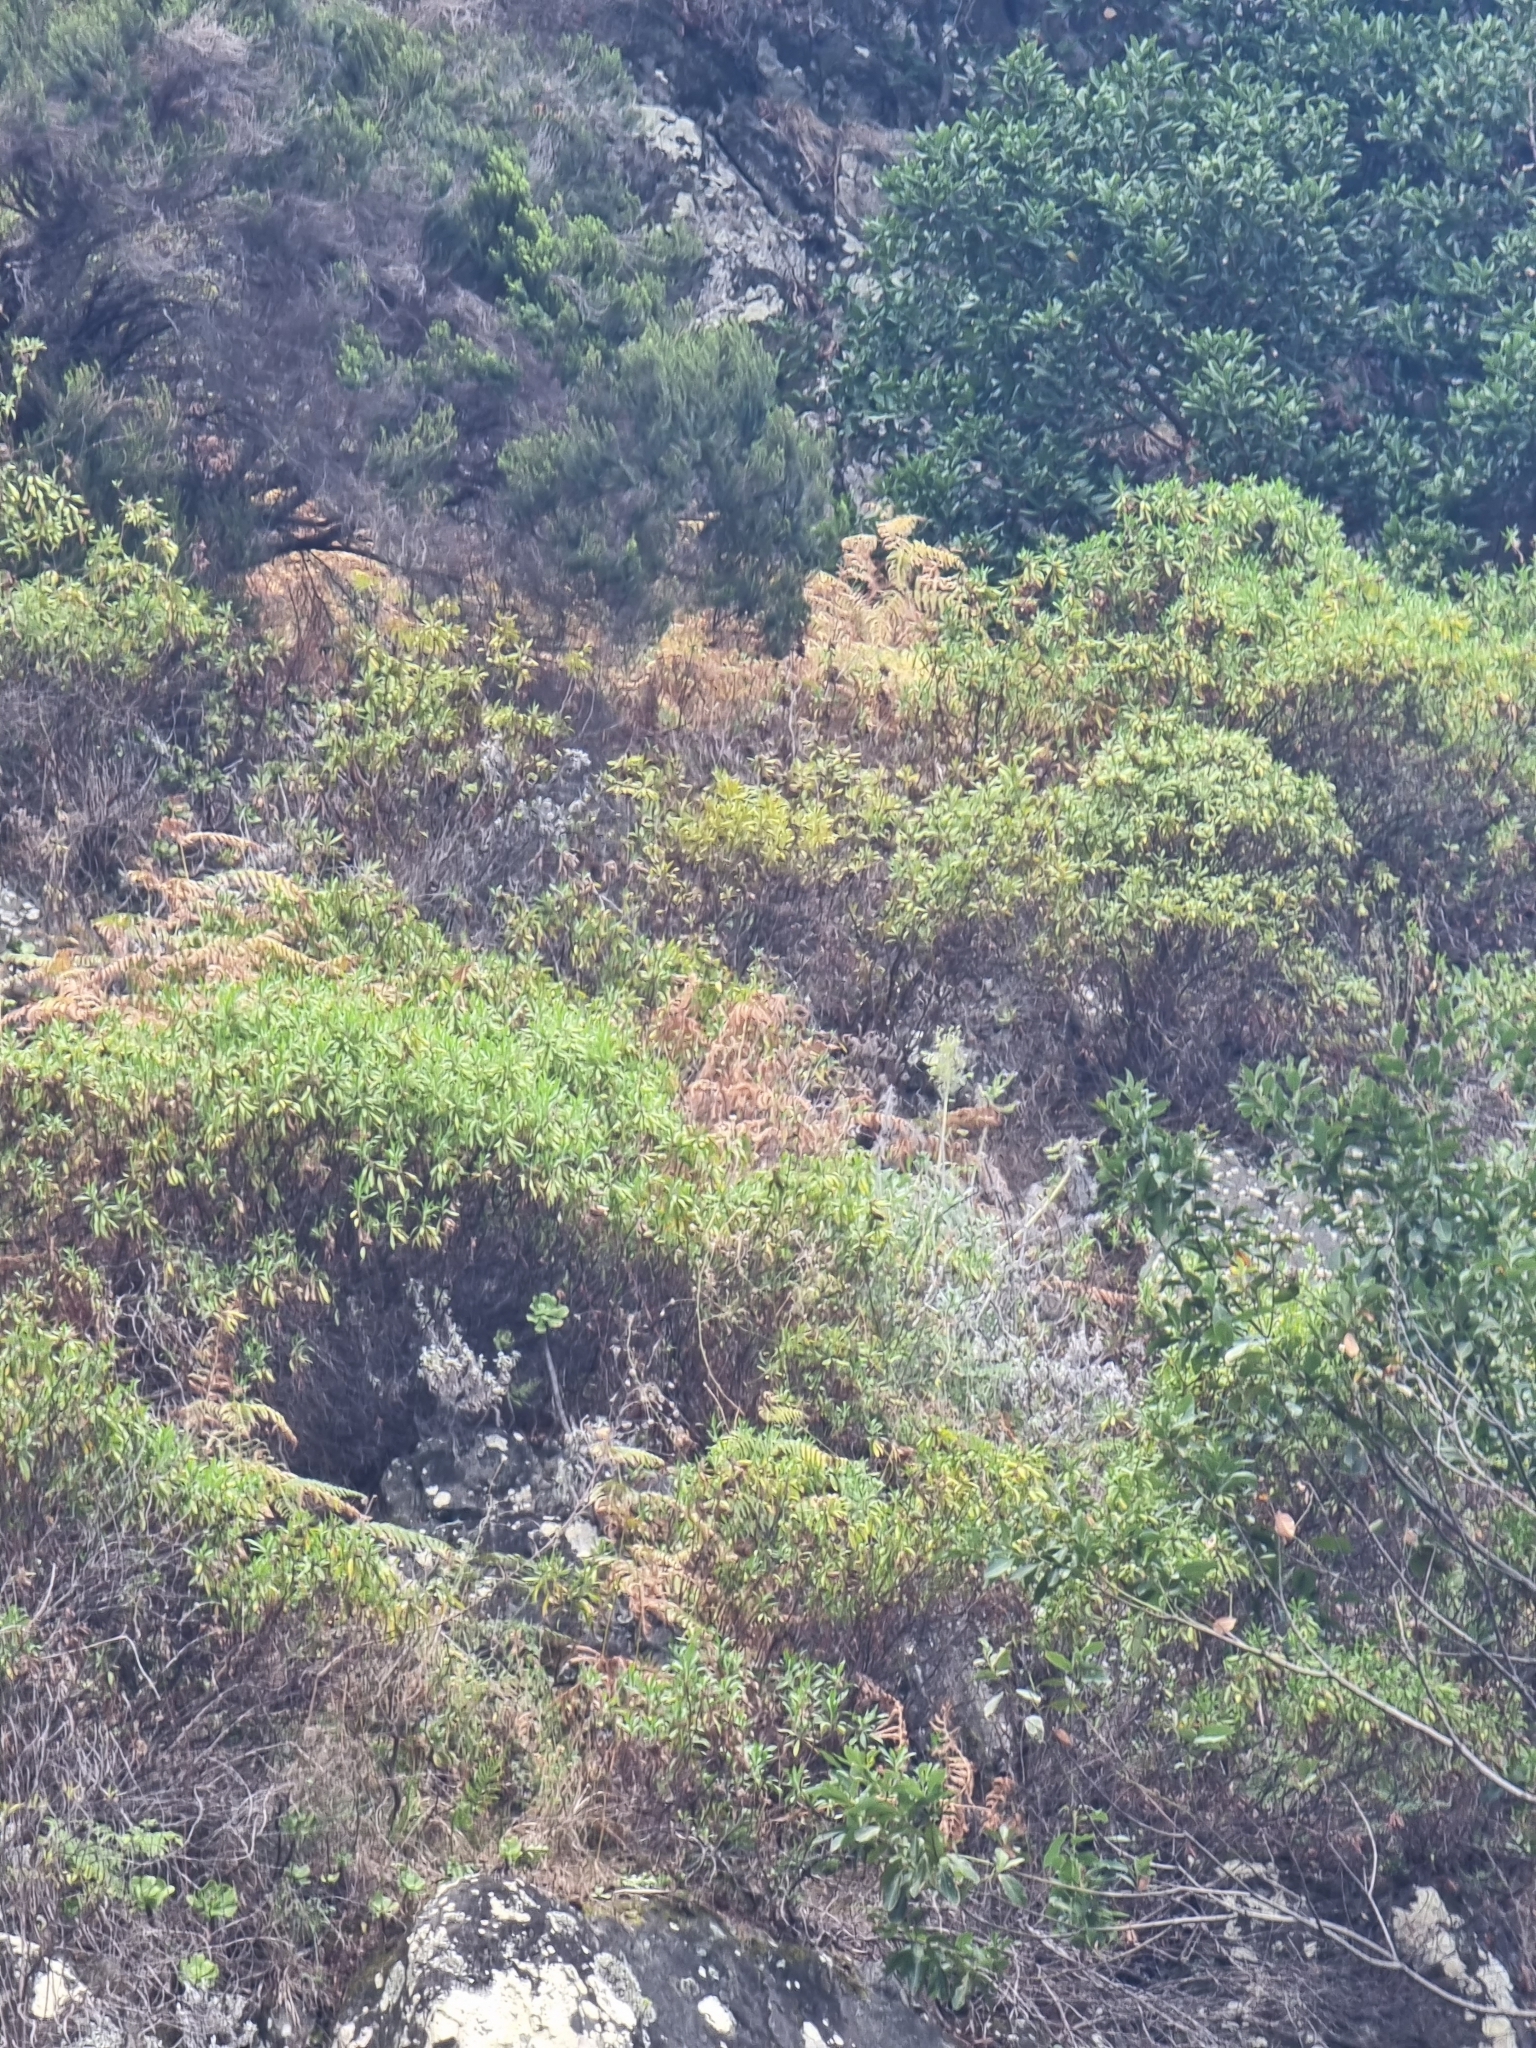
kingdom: Plantae
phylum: Tracheophyta
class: Magnoliopsida
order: Lamiales
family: Plantaginaceae
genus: Globularia
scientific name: Globularia salicina
